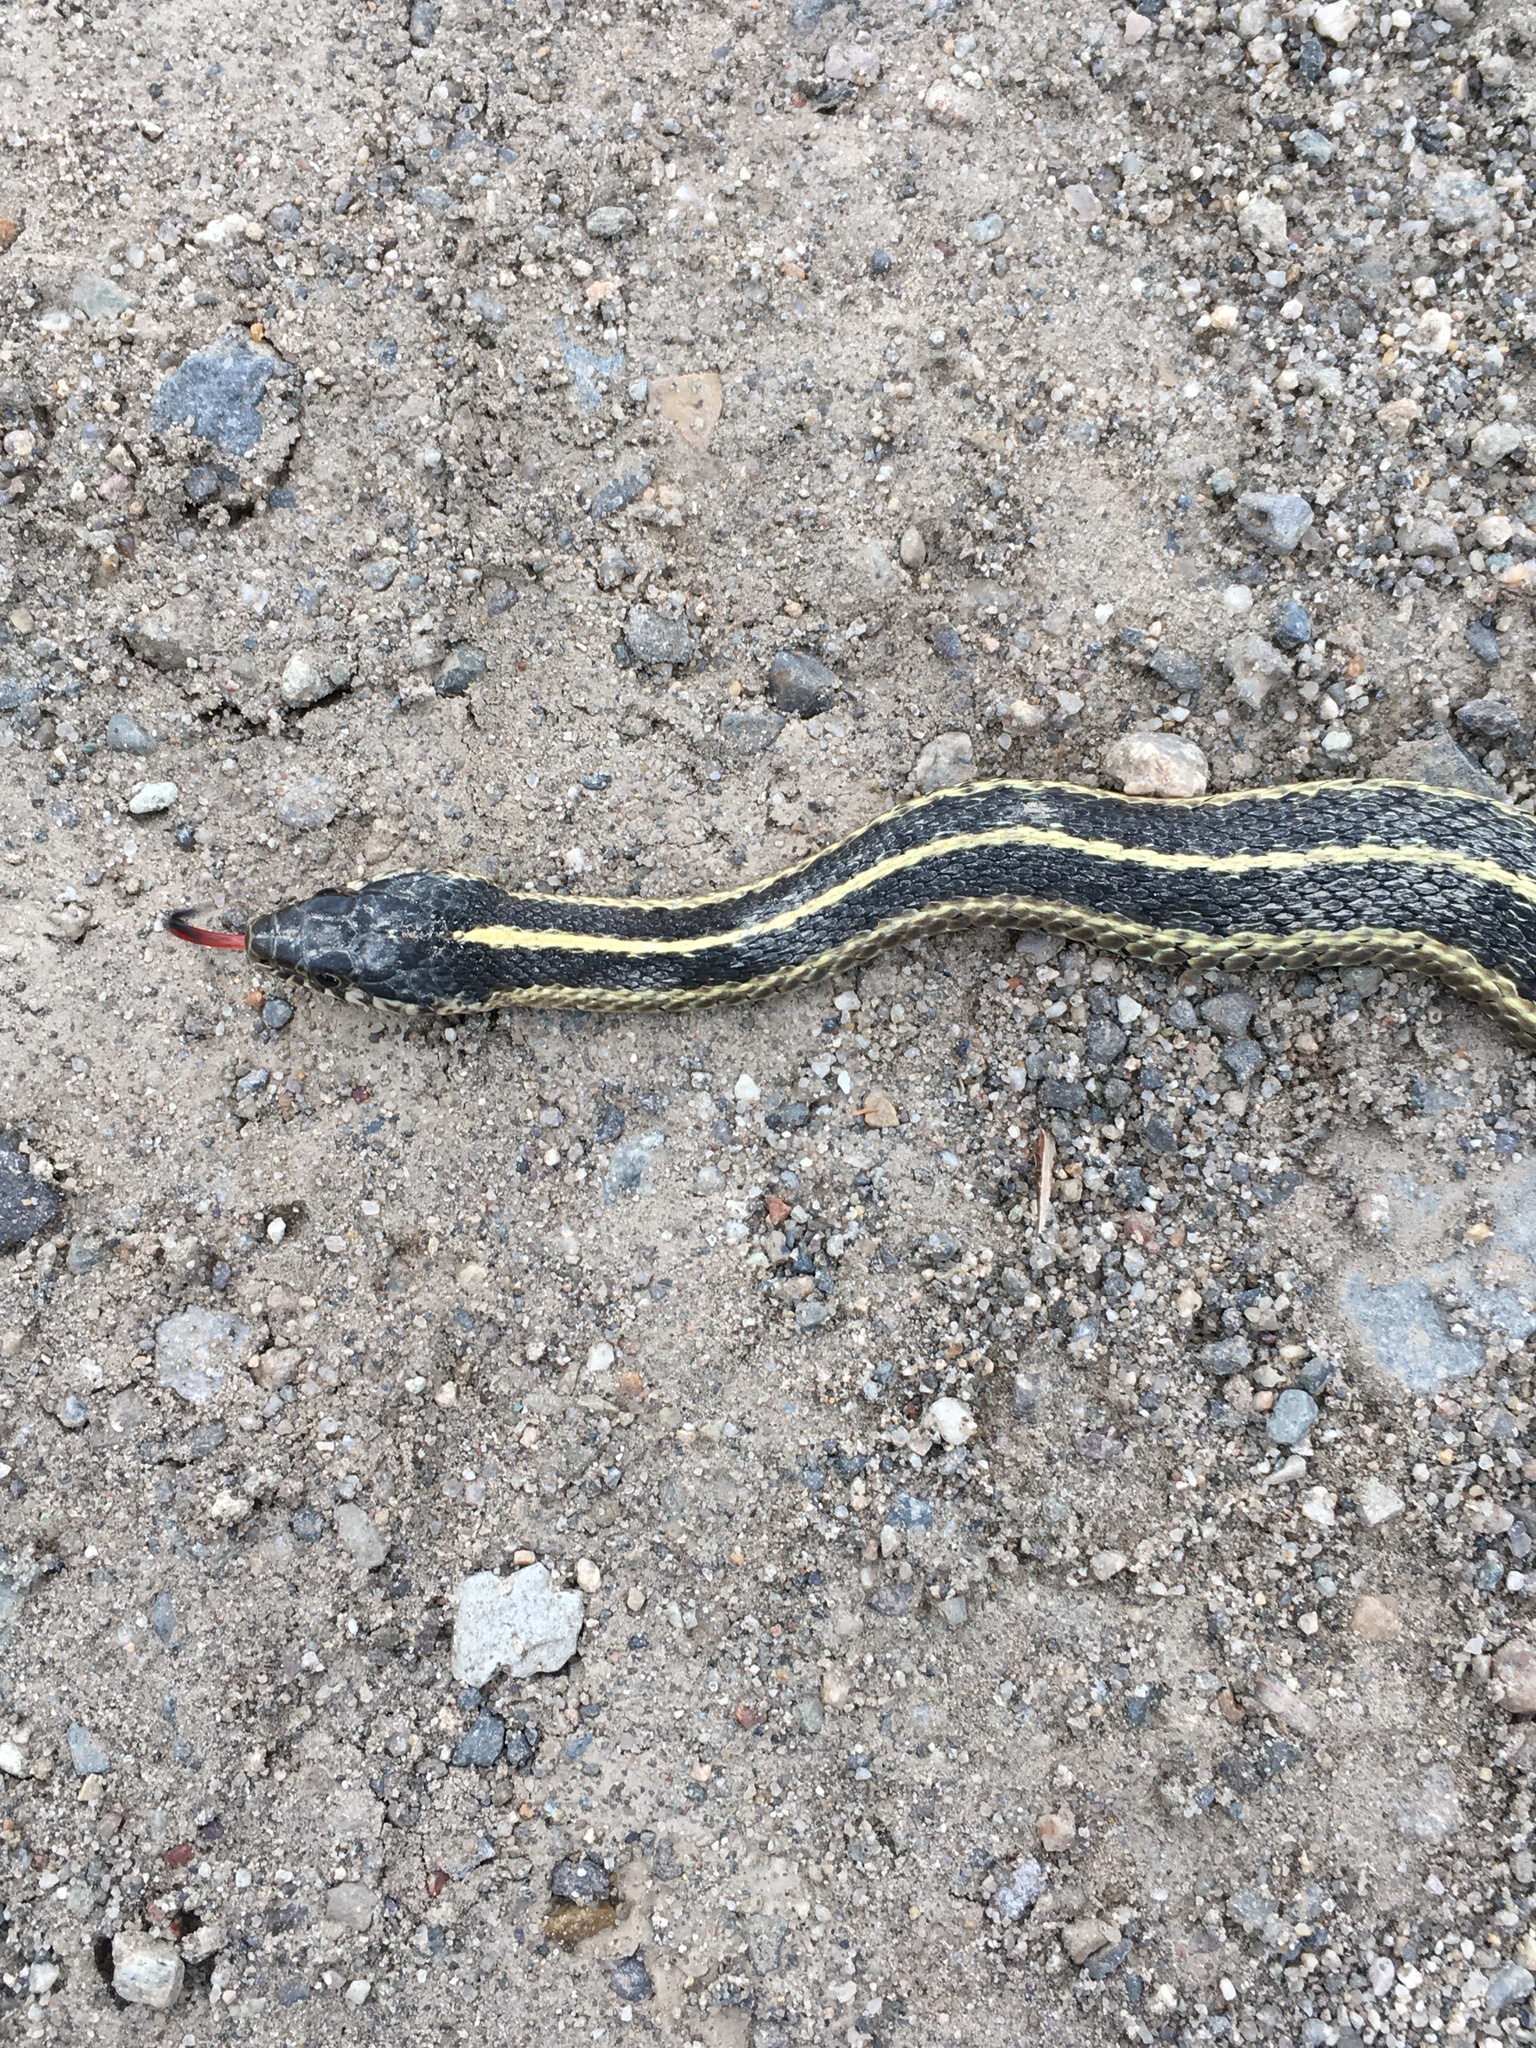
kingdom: Animalia
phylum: Chordata
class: Squamata
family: Colubridae
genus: Thamnophis
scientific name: Thamnophis elegans
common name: Western terrestrial garter snake
